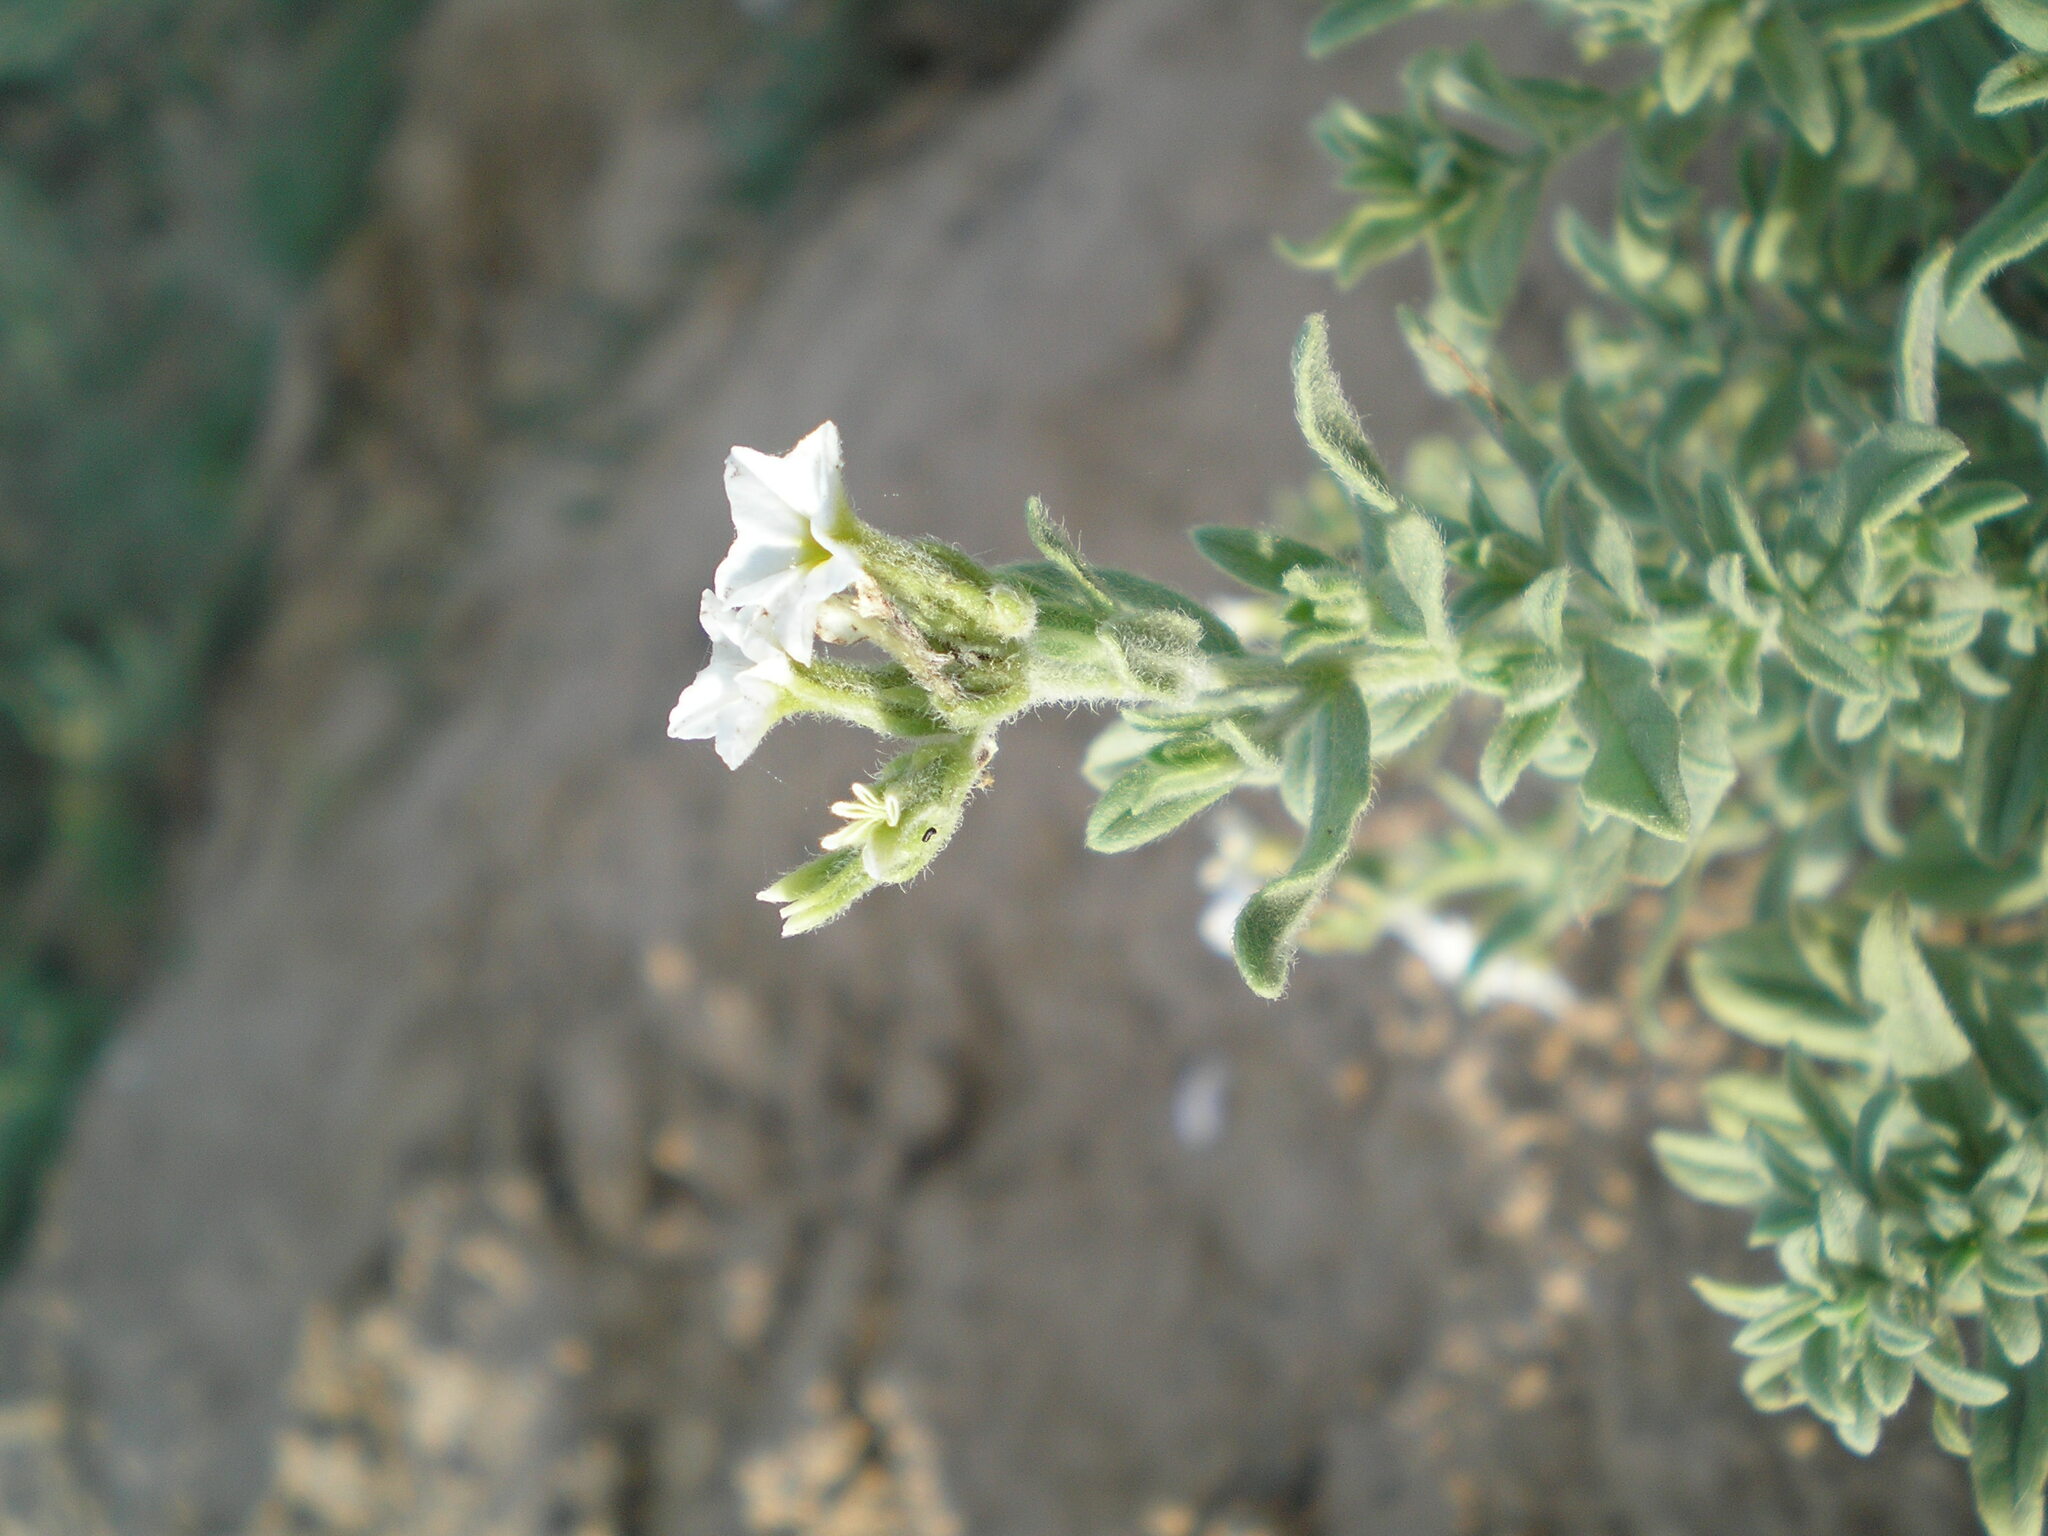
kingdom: Plantae
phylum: Tracheophyta
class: Magnoliopsida
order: Boraginales
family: Heliotropiaceae
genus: Tournefortia
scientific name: Tournefortia sibirica
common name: Siberian sea rosemary
